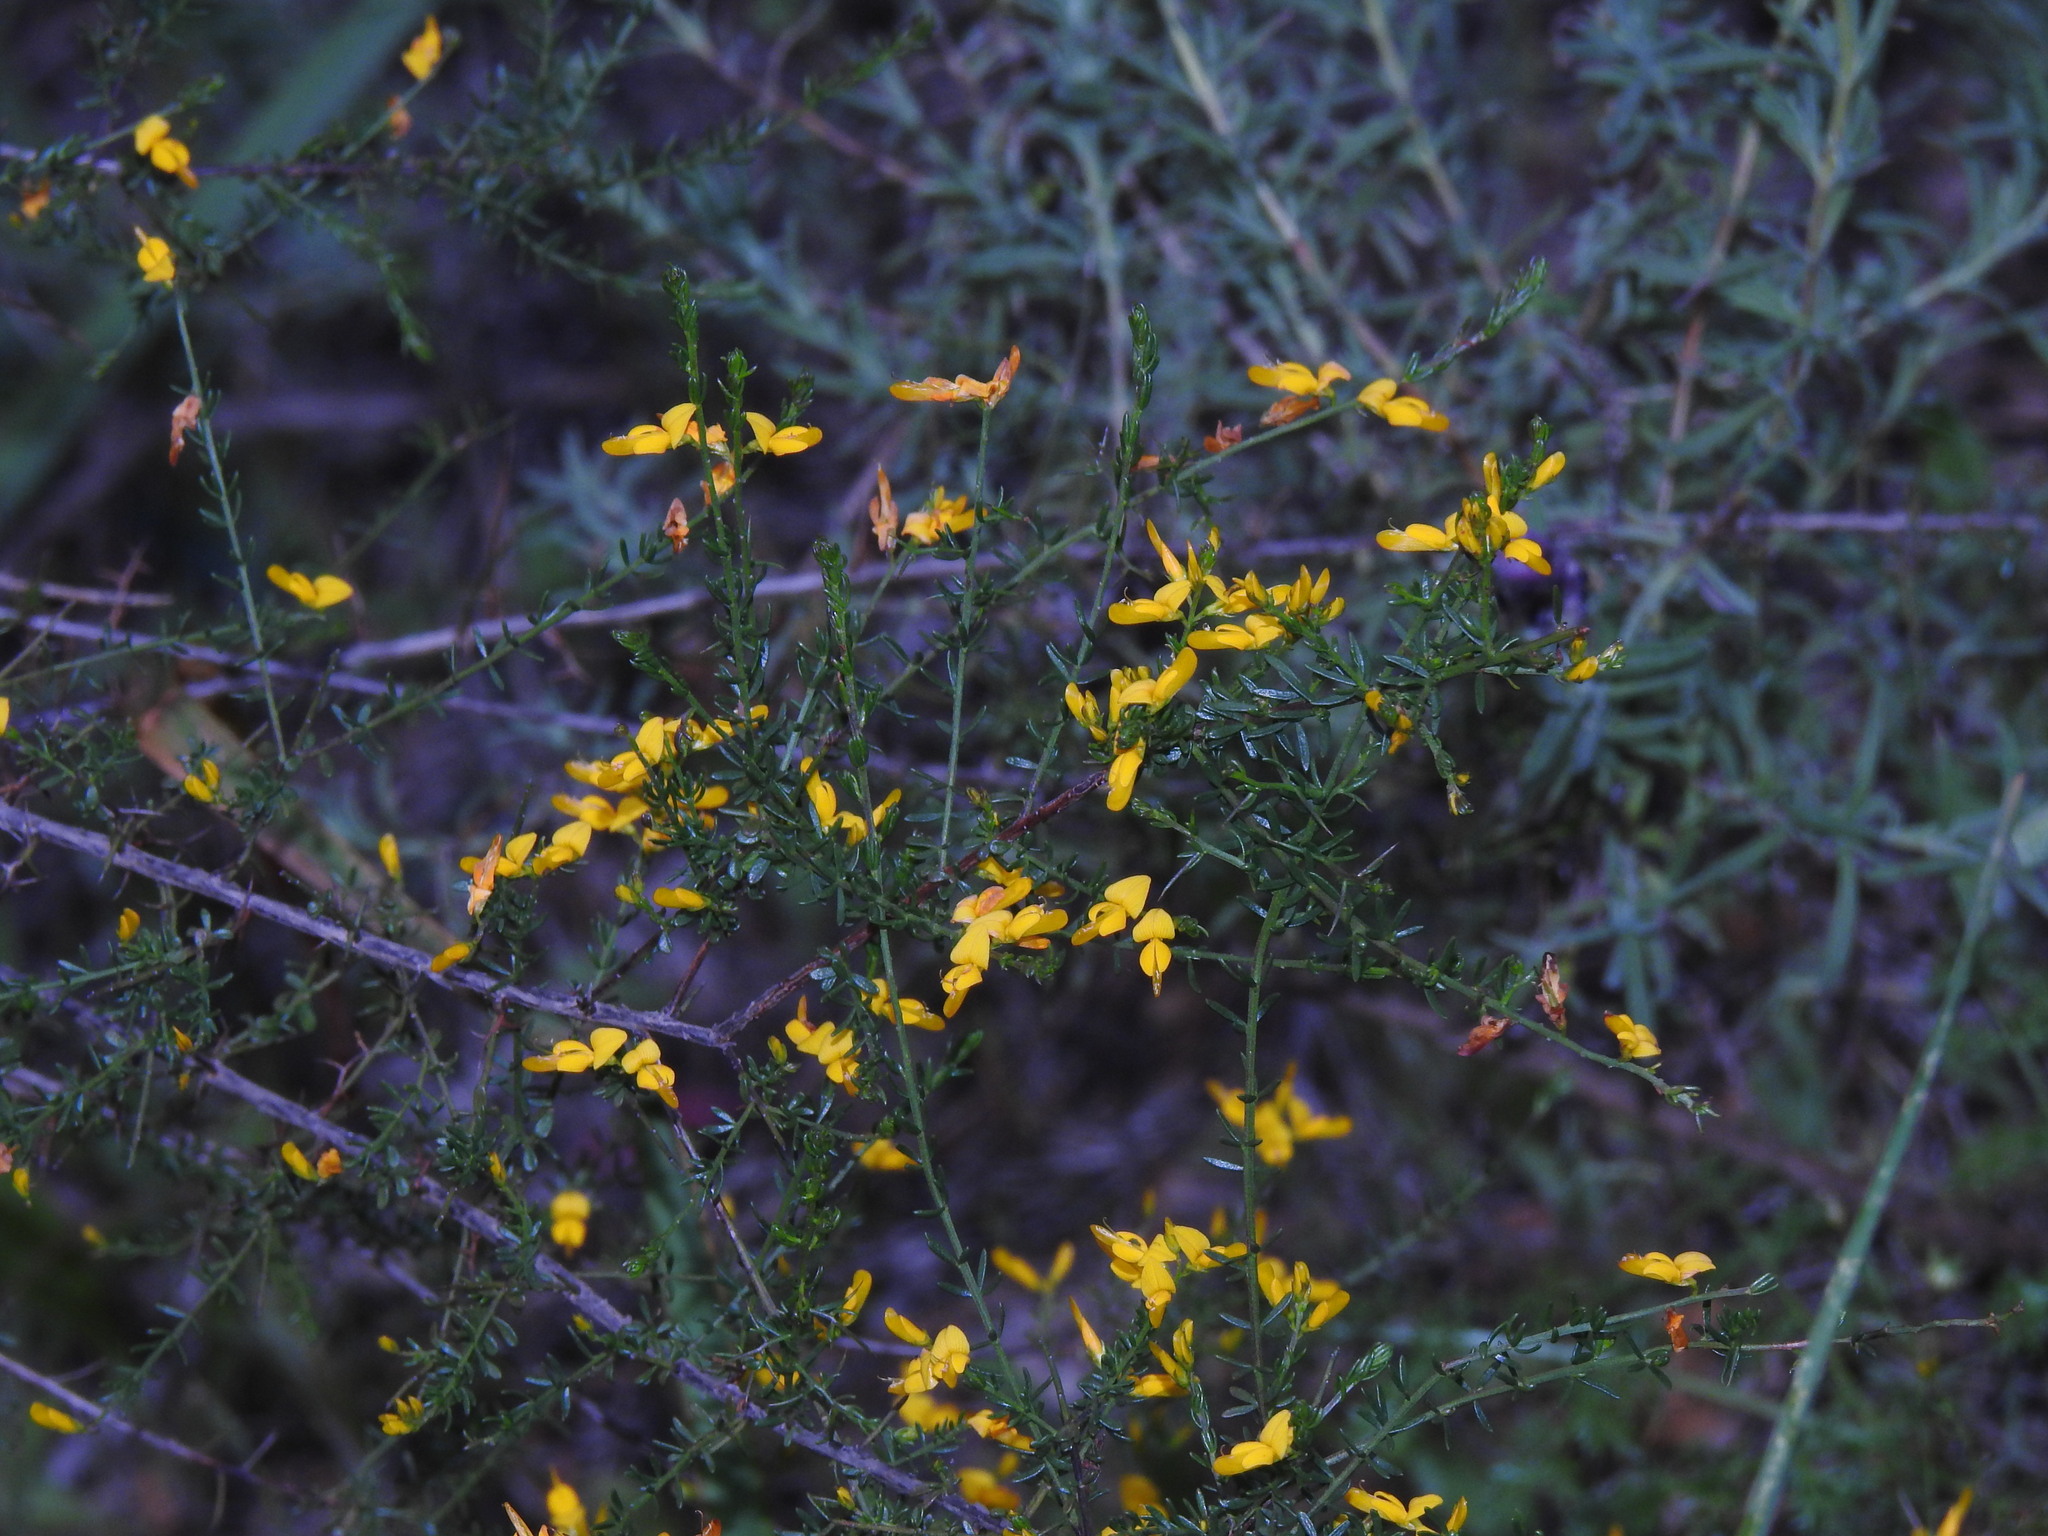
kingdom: Plantae
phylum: Tracheophyta
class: Magnoliopsida
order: Fabales
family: Fabaceae
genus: Genista
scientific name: Genista triacanthos
